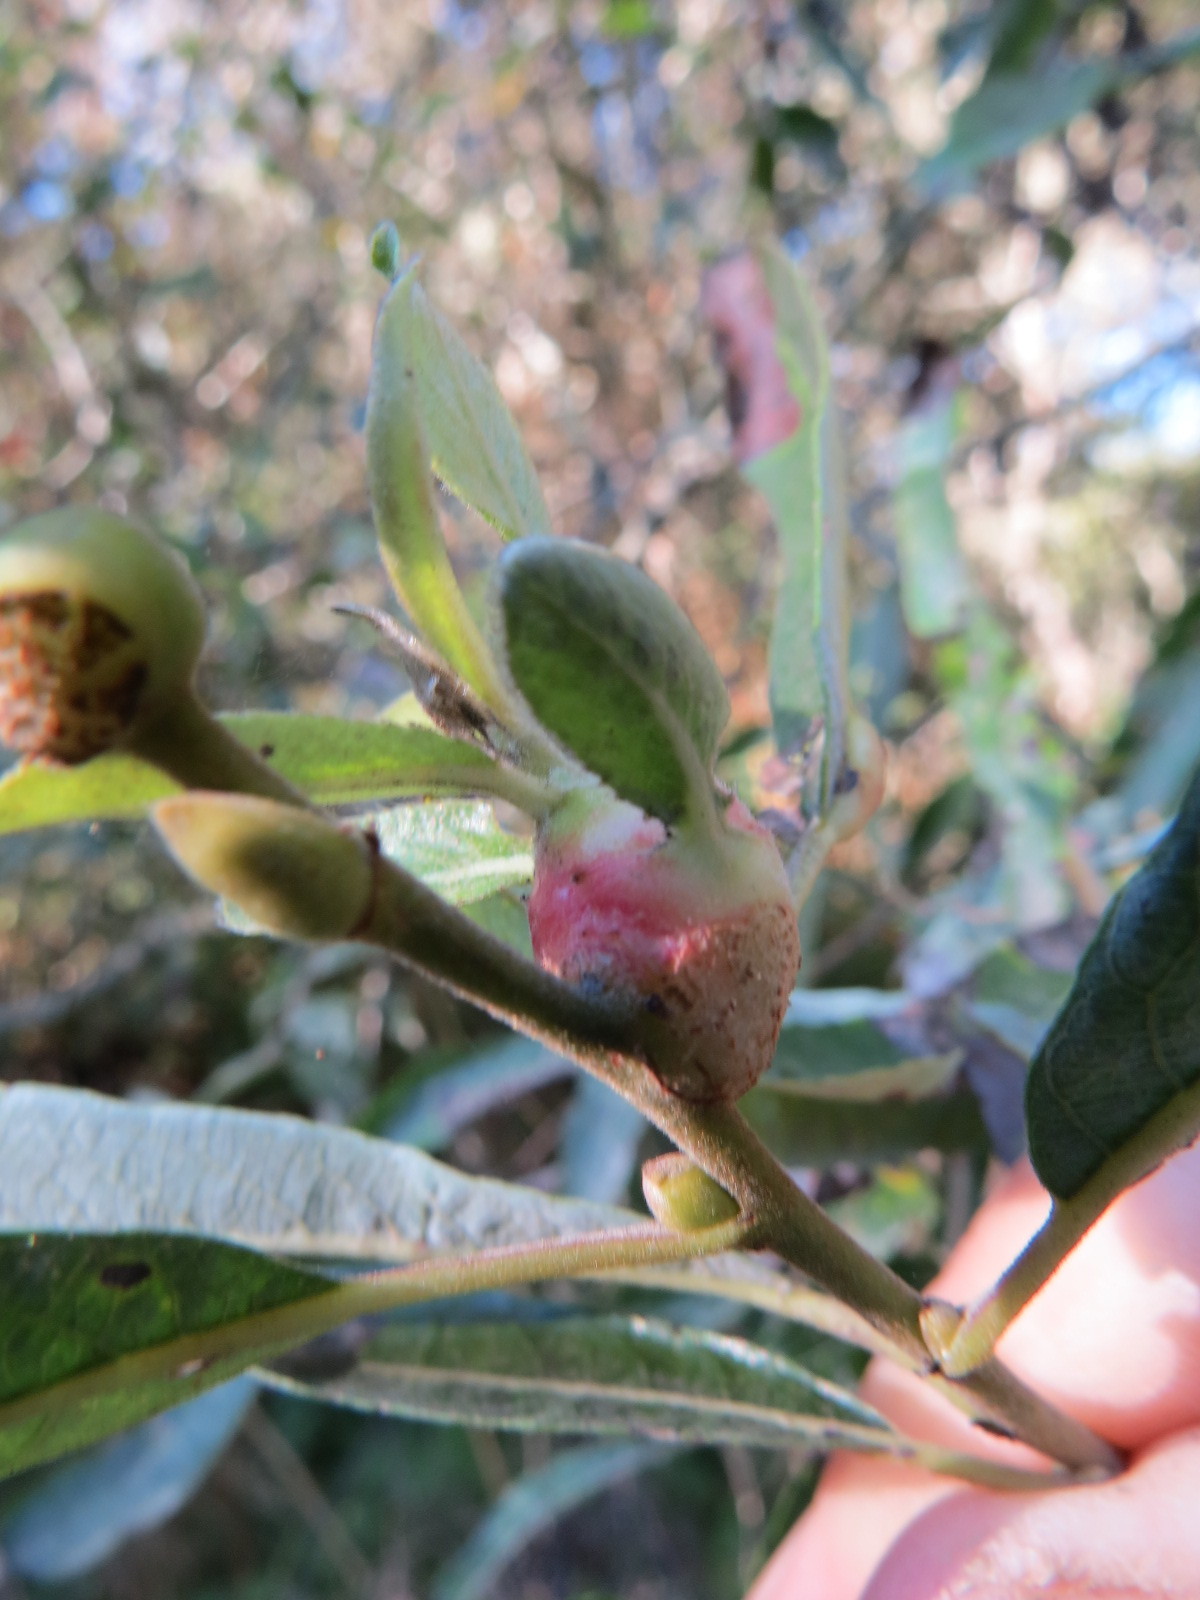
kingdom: Animalia
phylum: Arthropoda
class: Insecta
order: Diptera
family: Cecidomyiidae
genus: Rabdophaga
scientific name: Rabdophaga salicisbatatas
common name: Potato gall midge
